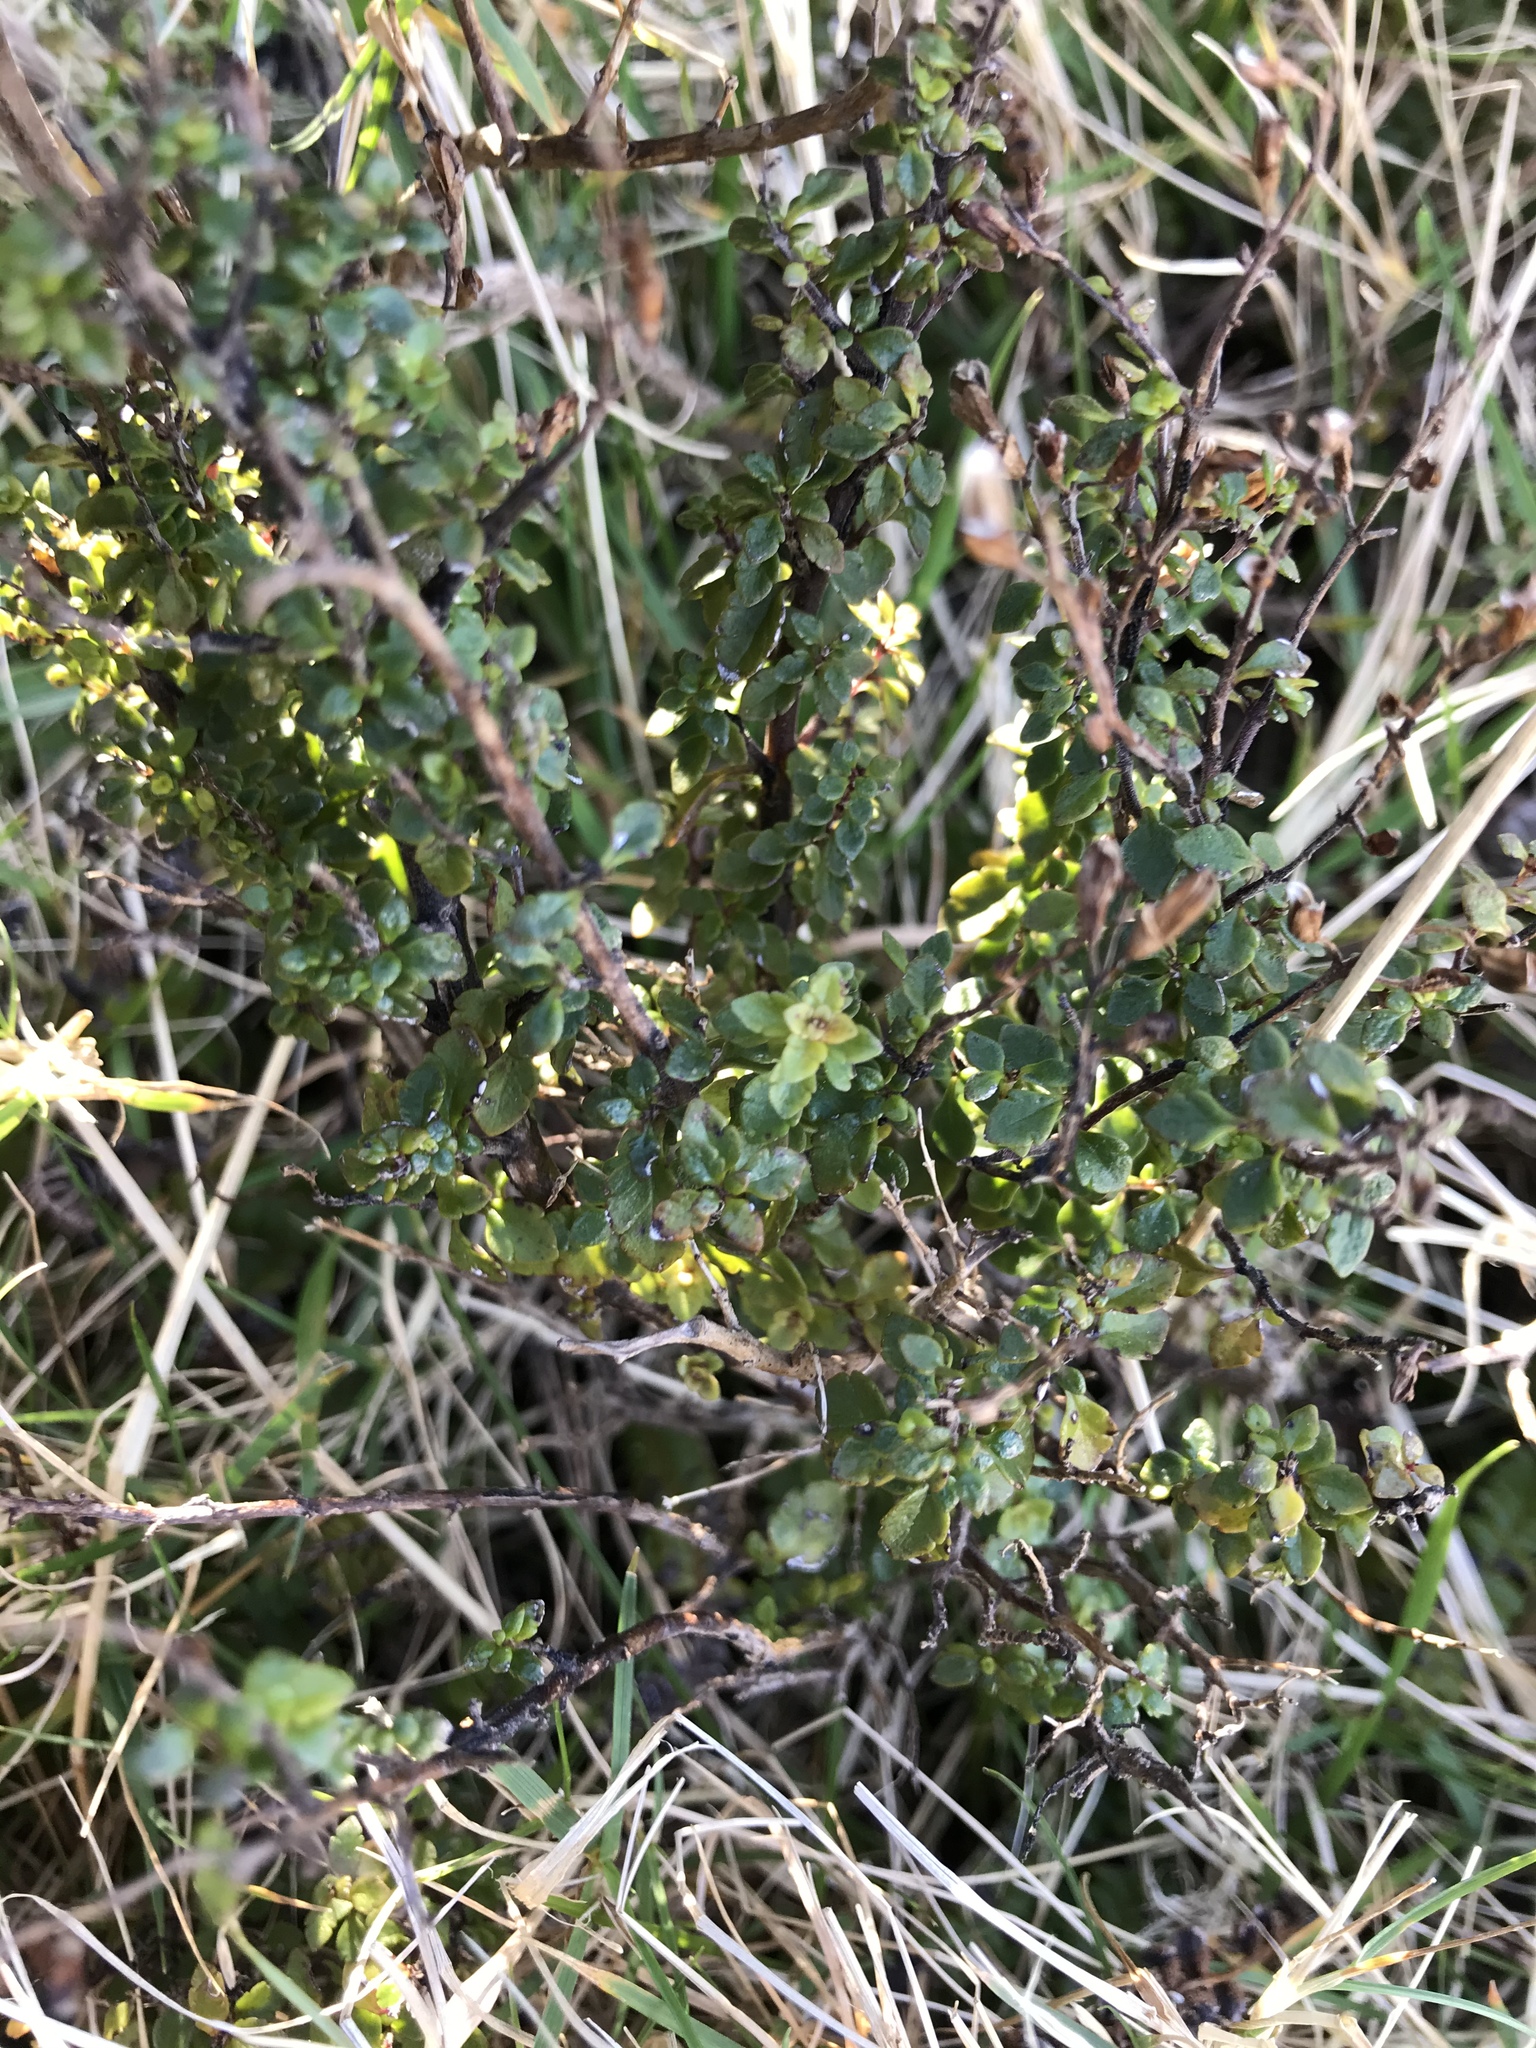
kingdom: Plantae
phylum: Tracheophyta
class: Magnoliopsida
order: Lamiales
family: Orobanchaceae
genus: Euphrasia
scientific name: Euphrasia cuneata
